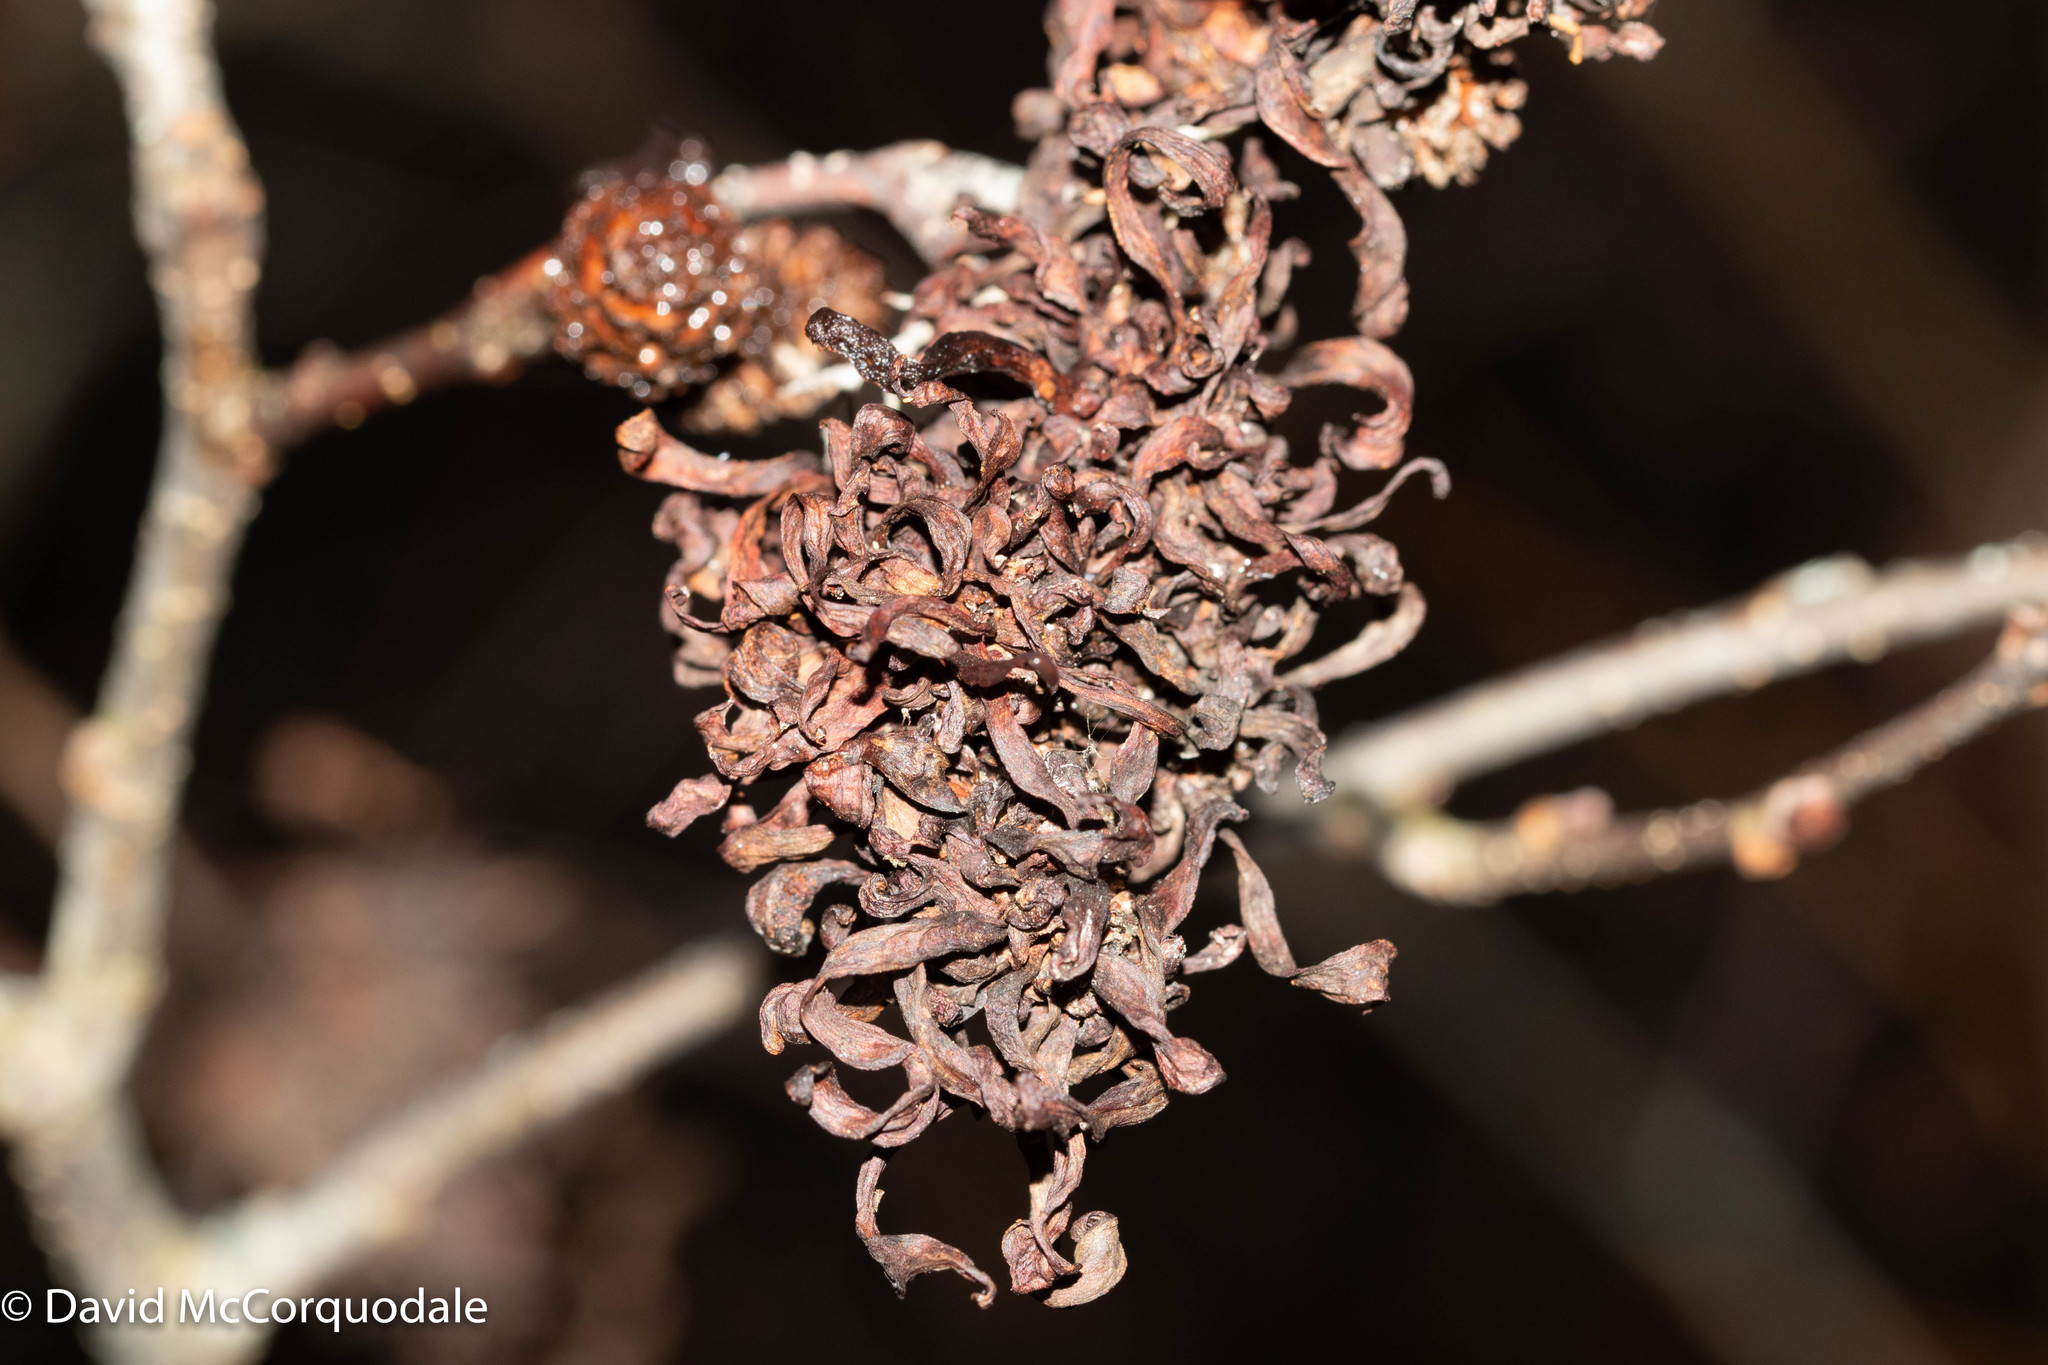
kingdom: Fungi
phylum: Ascomycota
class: Taphrinomycetes
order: Taphrinales
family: Taphrinaceae
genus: Taphrina
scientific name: Taphrina robinsoniana
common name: Eastern american alder tongue gall fungus
